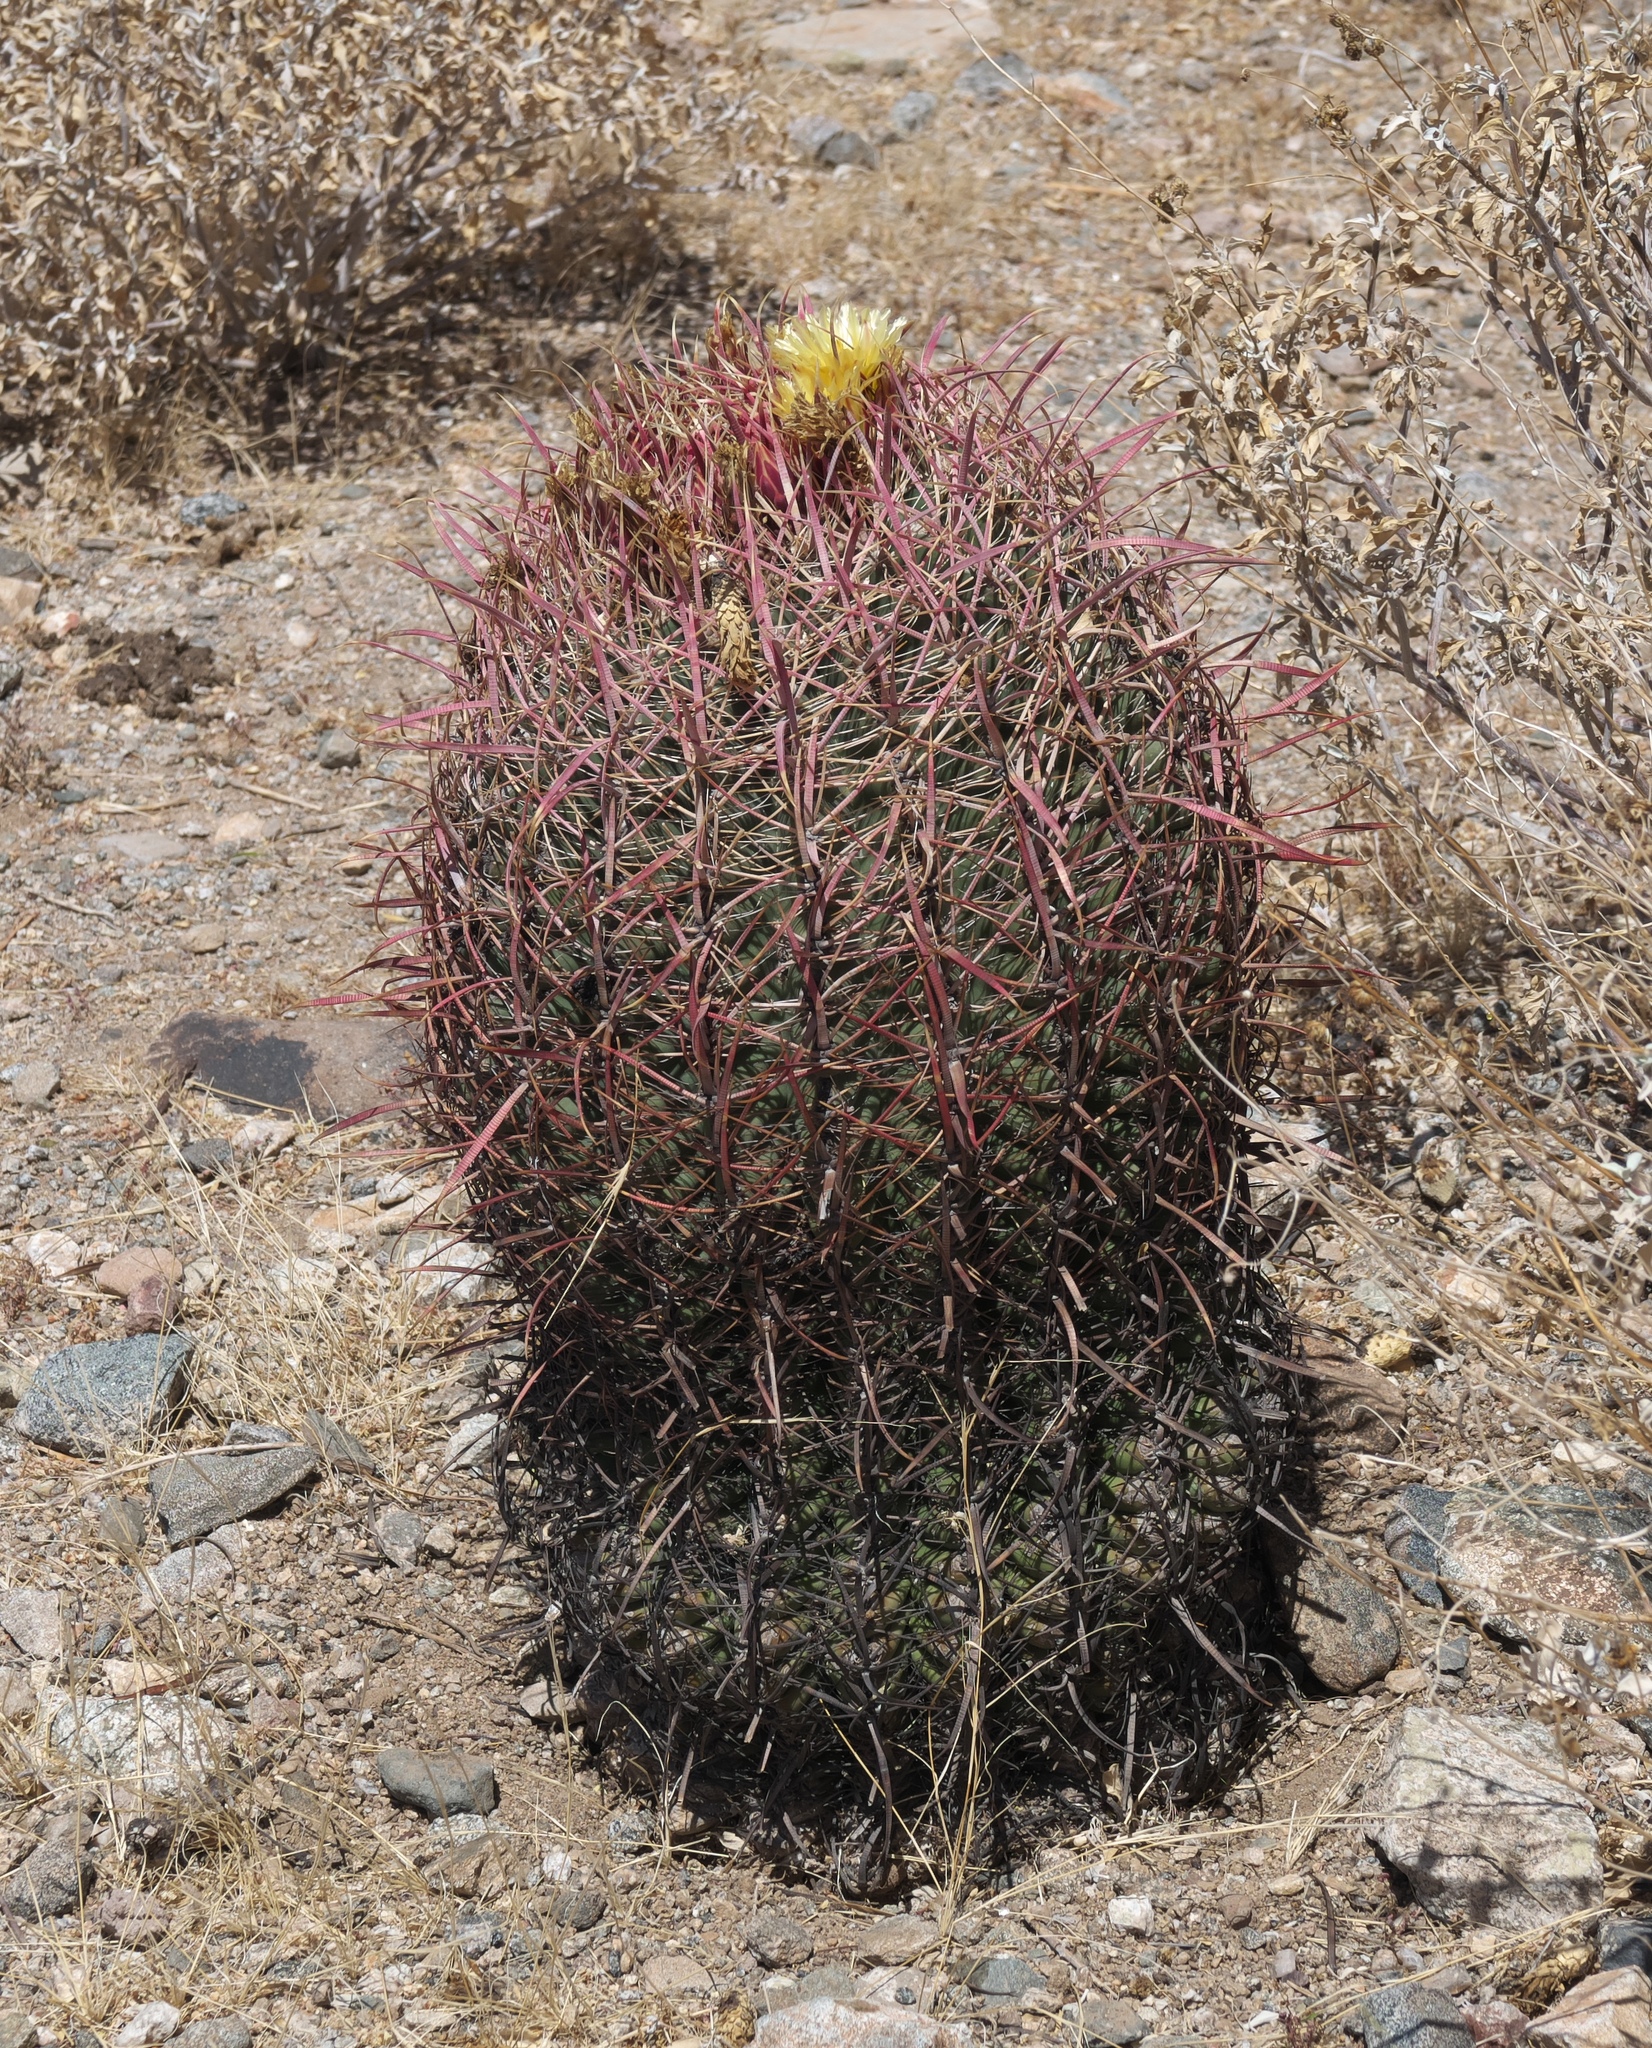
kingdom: Plantae
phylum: Tracheophyta
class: Magnoliopsida
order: Caryophyllales
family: Cactaceae
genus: Ferocactus
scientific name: Ferocactus cylindraceus
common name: California barrel cactus
